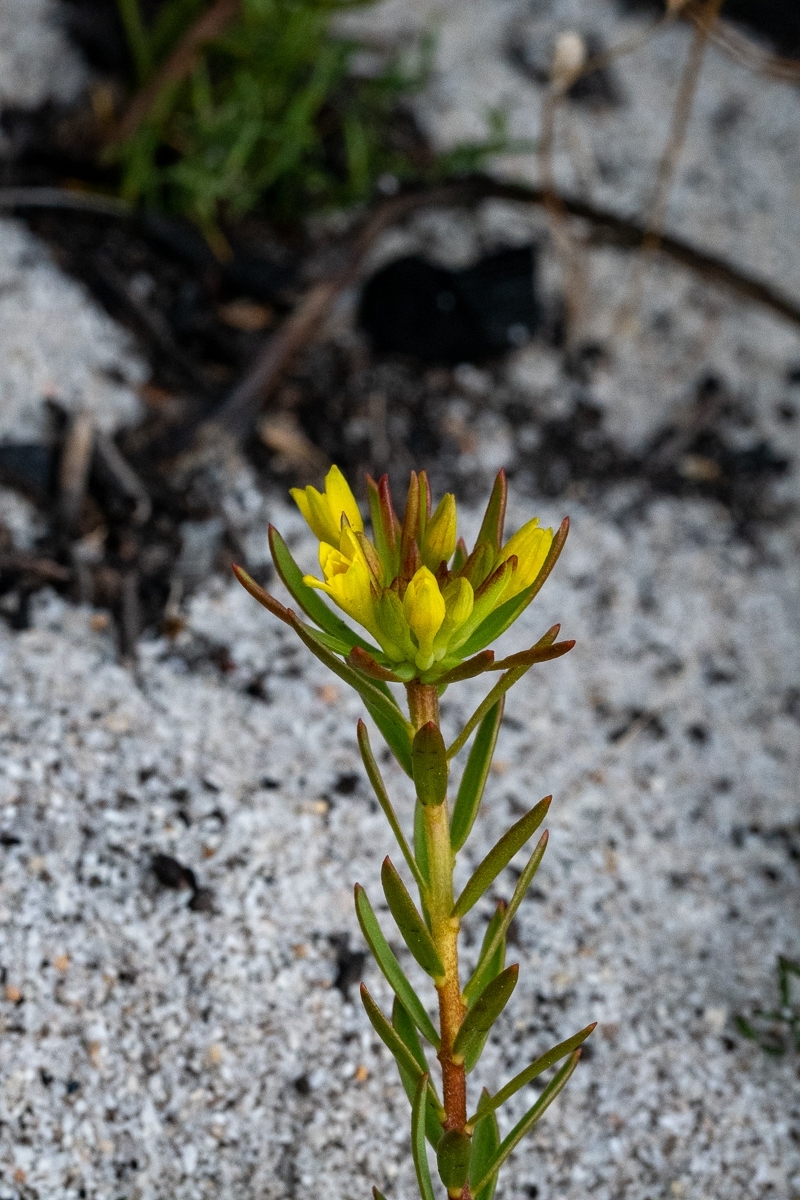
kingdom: Plantae
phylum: Tracheophyta
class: Magnoliopsida
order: Malvales
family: Thymelaeaceae
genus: Gnidia
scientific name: Gnidia juniperifolia
